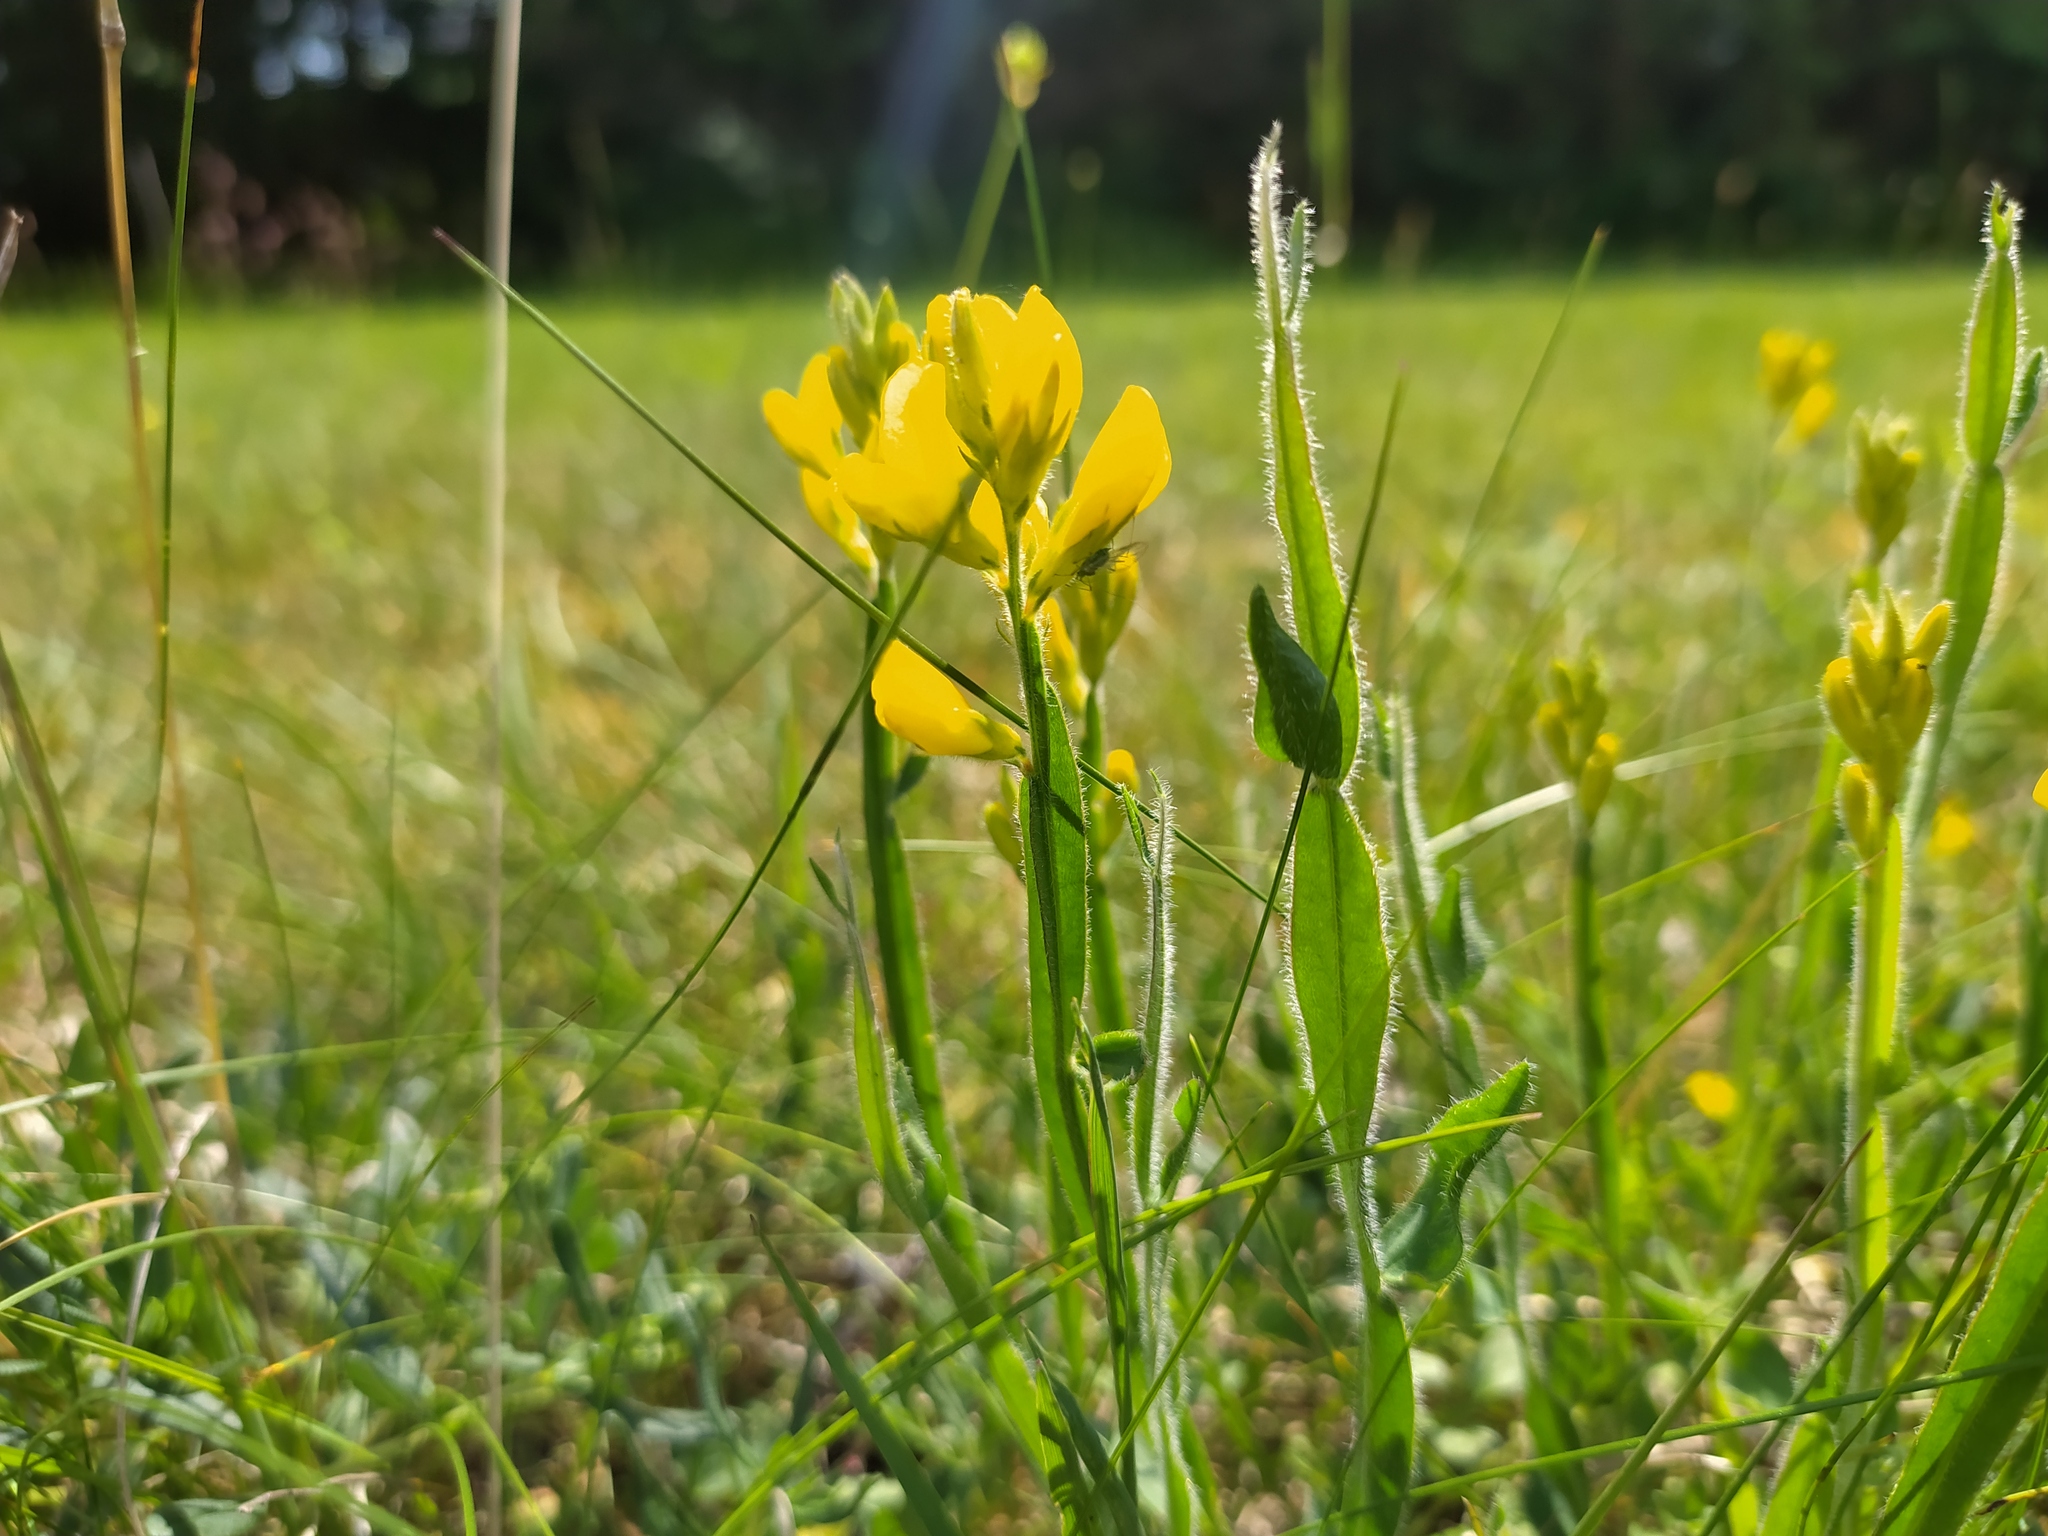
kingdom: Plantae
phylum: Tracheophyta
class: Magnoliopsida
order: Fabales
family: Fabaceae
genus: Genista
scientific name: Genista sagittalis
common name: Winged greenweed
